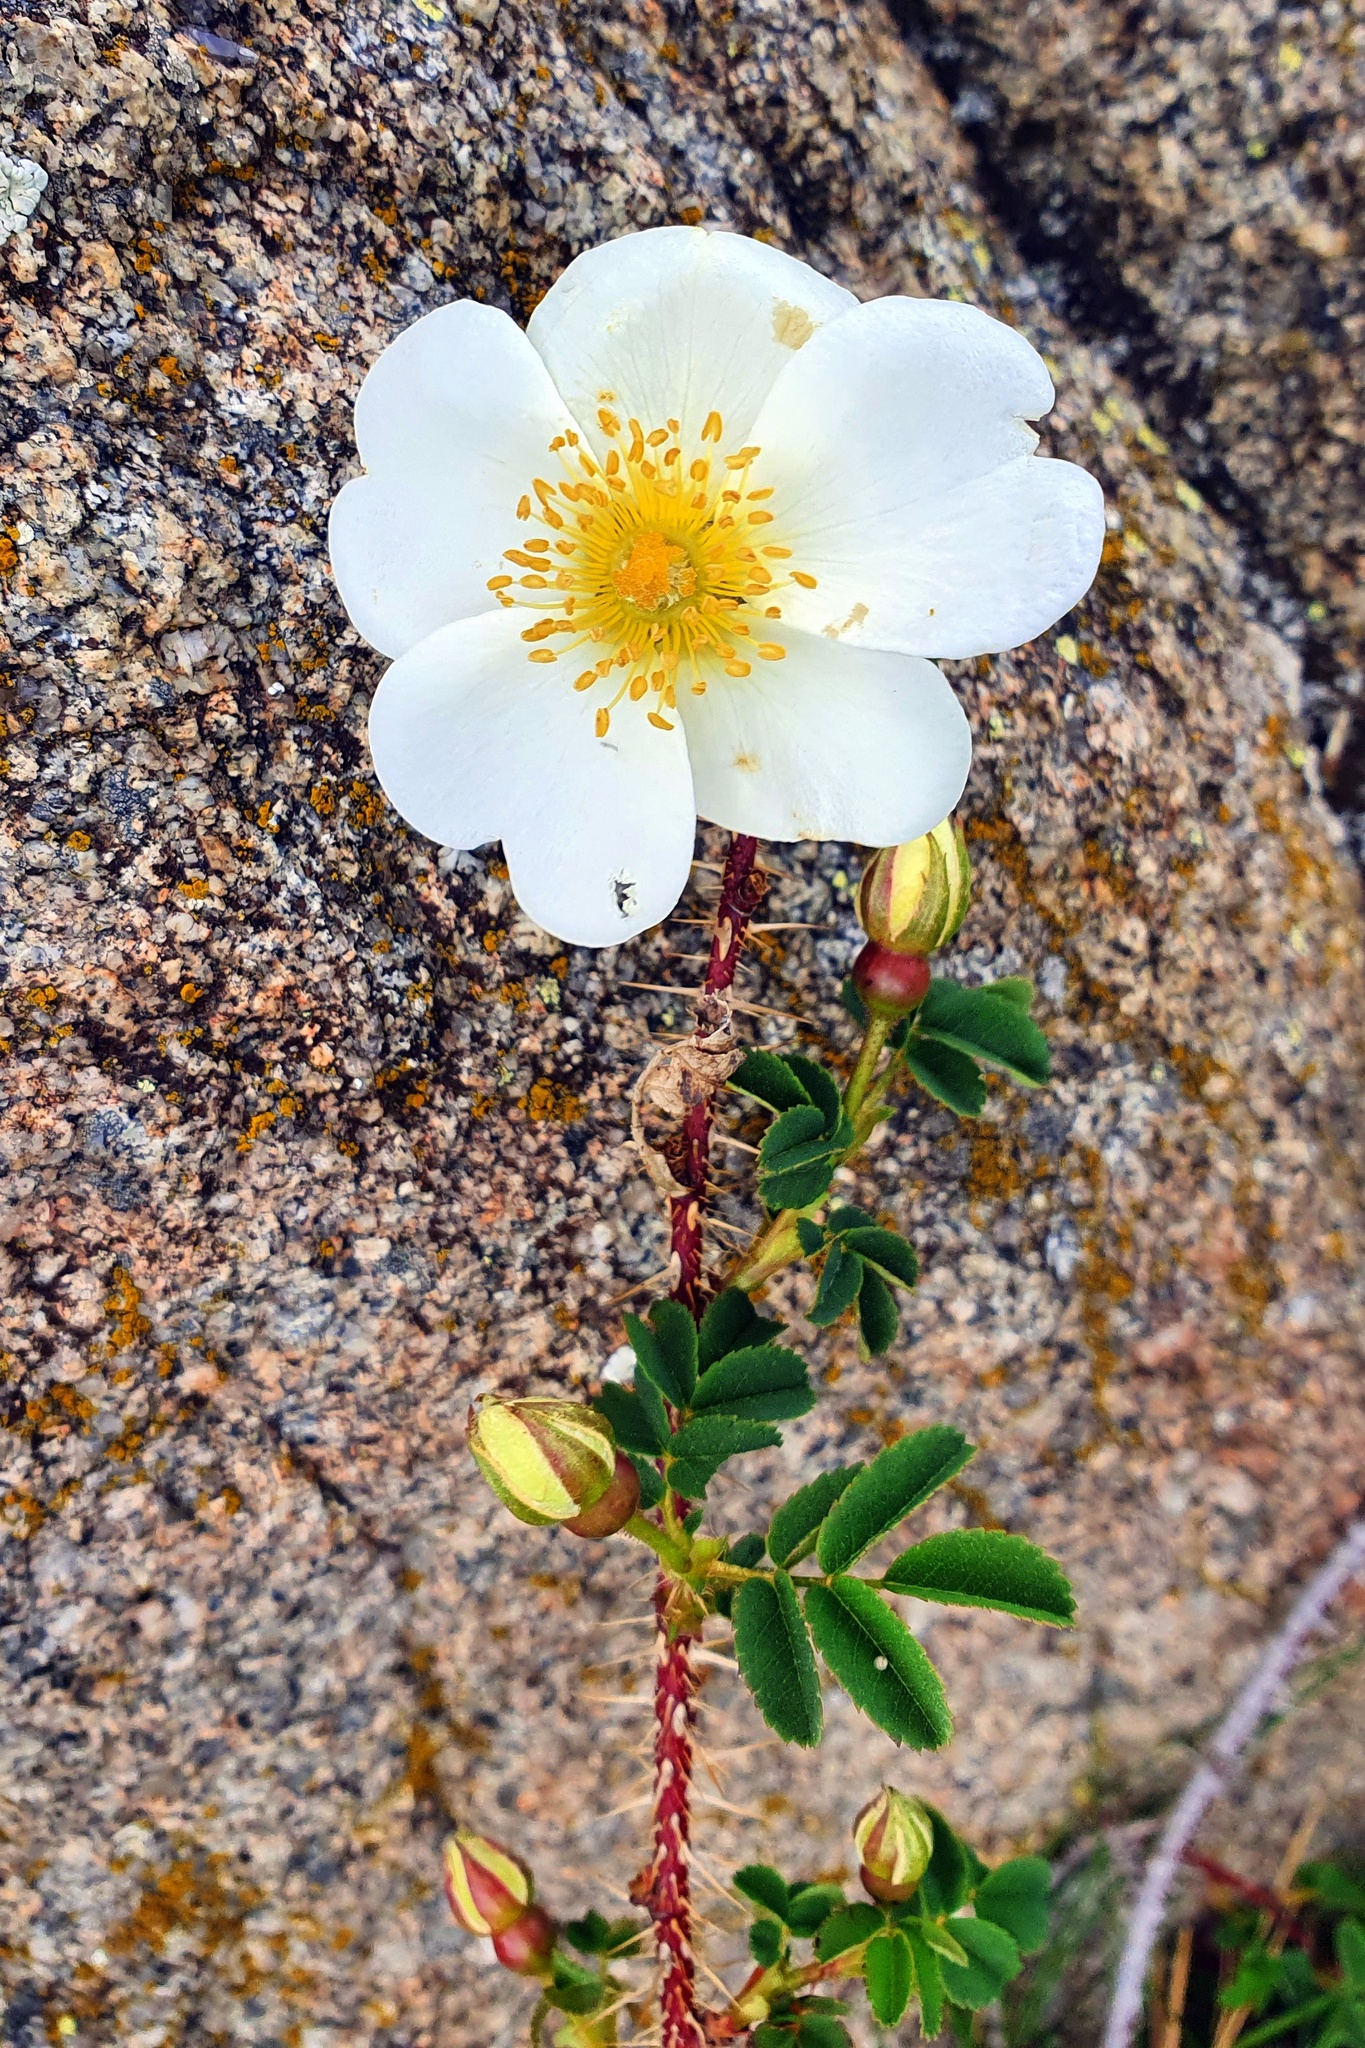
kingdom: Plantae
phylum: Tracheophyta
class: Magnoliopsida
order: Rosales
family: Rosaceae
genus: Rosa
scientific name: Rosa spinosissima
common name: Burnet rose
